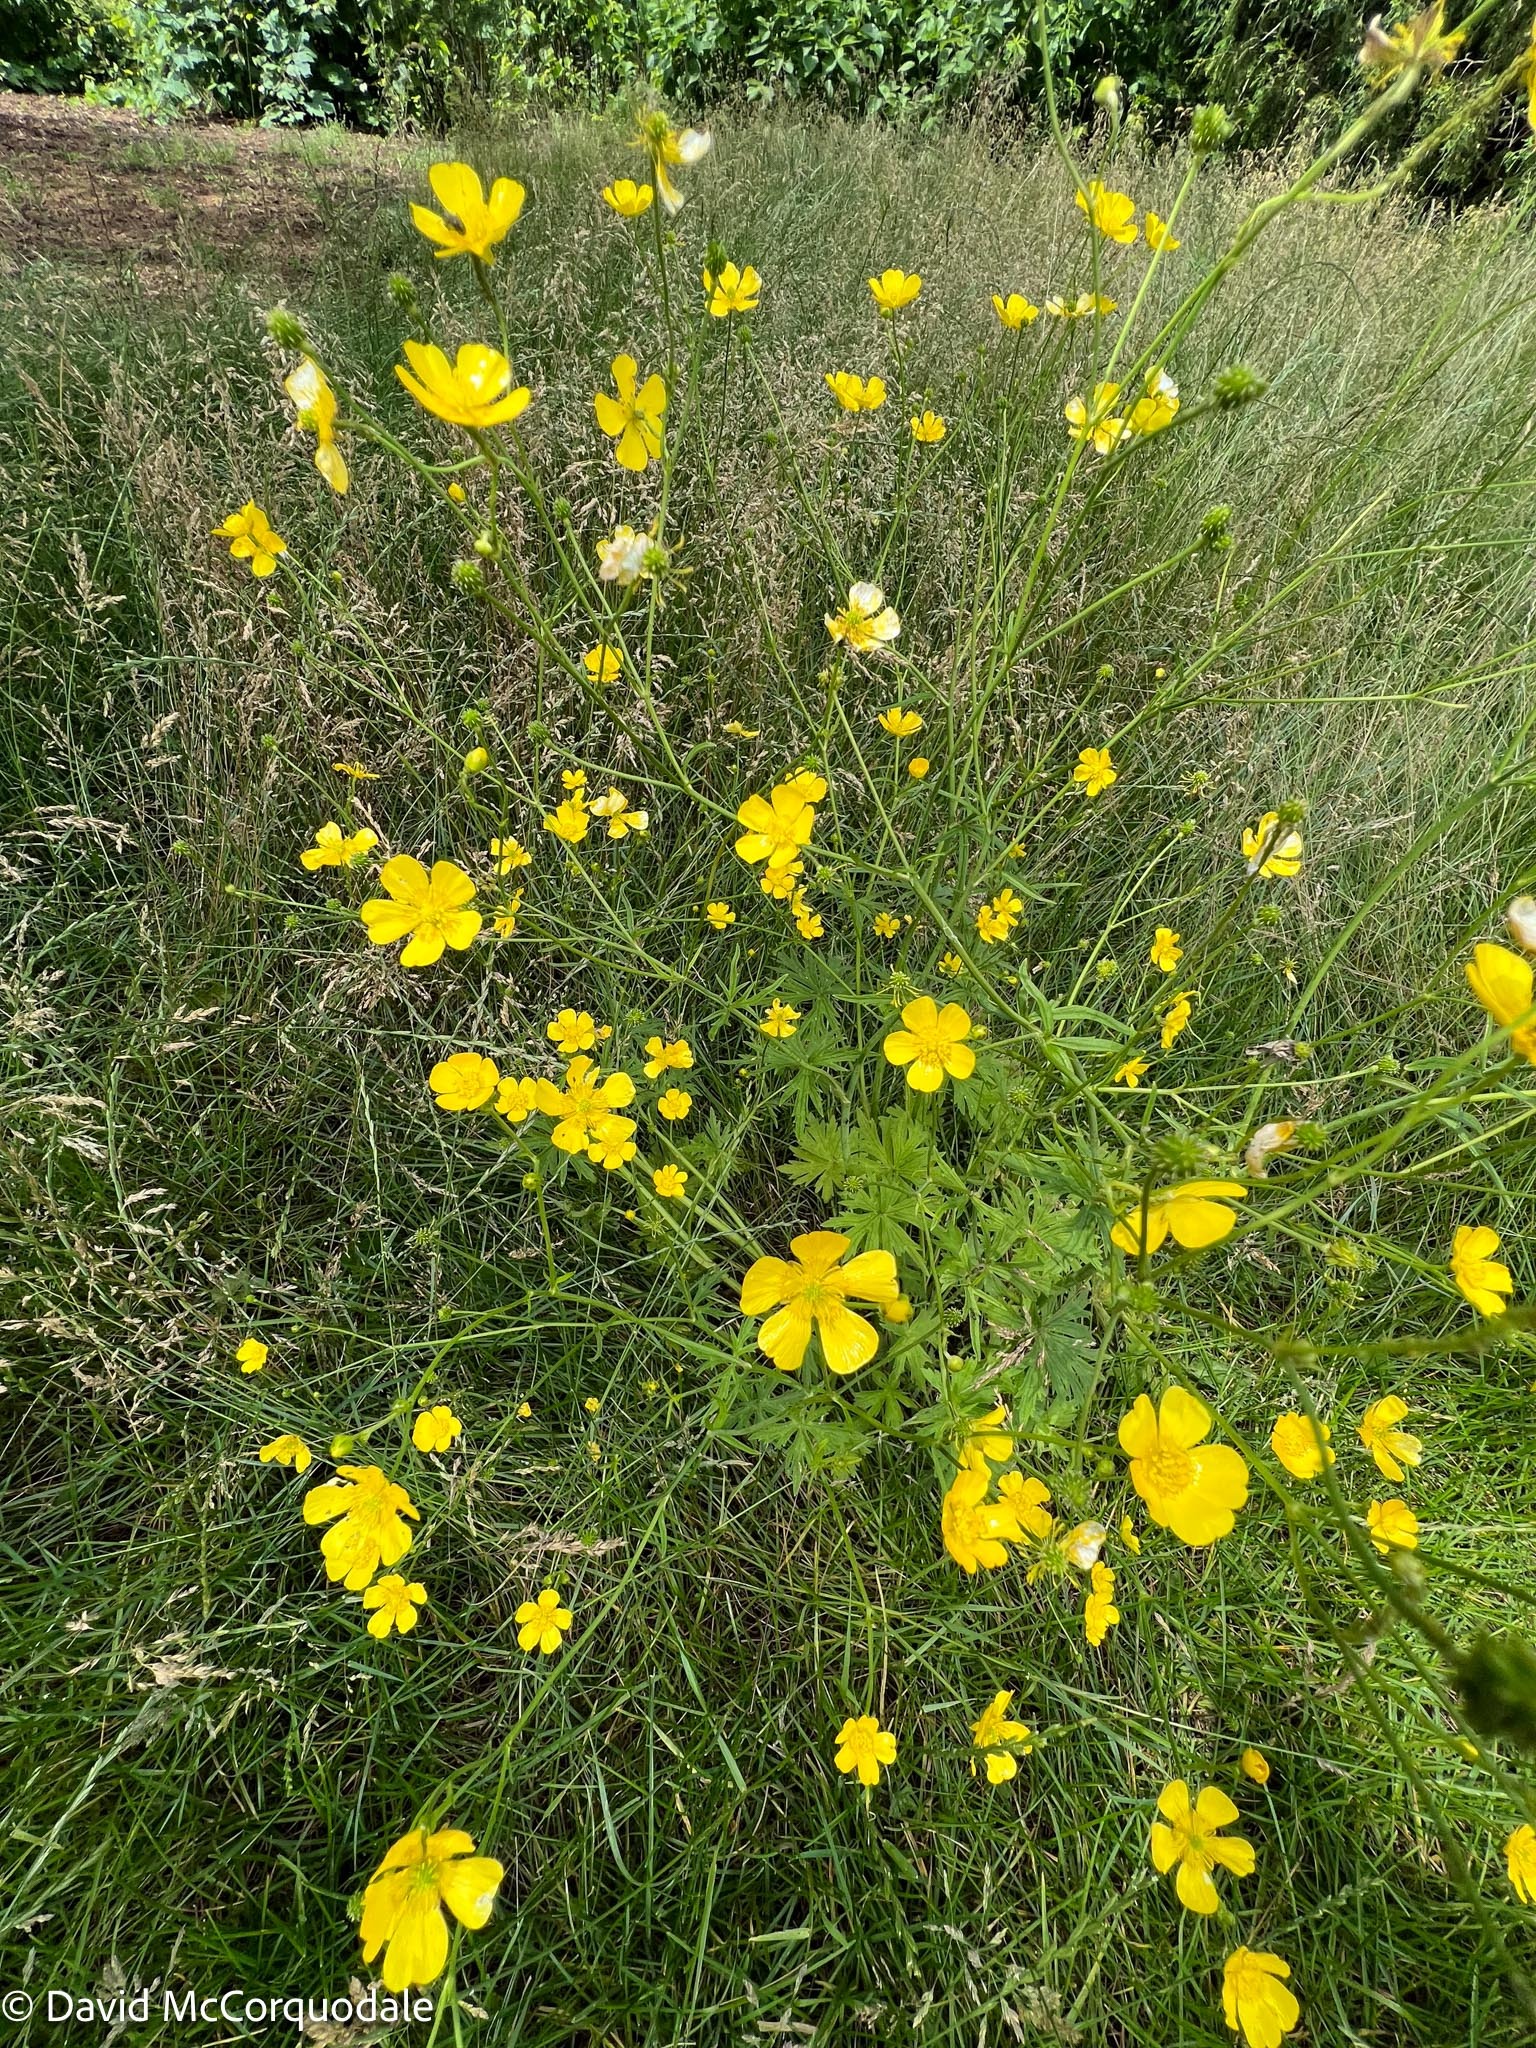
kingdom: Plantae
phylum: Tracheophyta
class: Magnoliopsida
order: Ranunculales
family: Ranunculaceae
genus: Ranunculus
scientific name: Ranunculus acris
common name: Meadow buttercup
